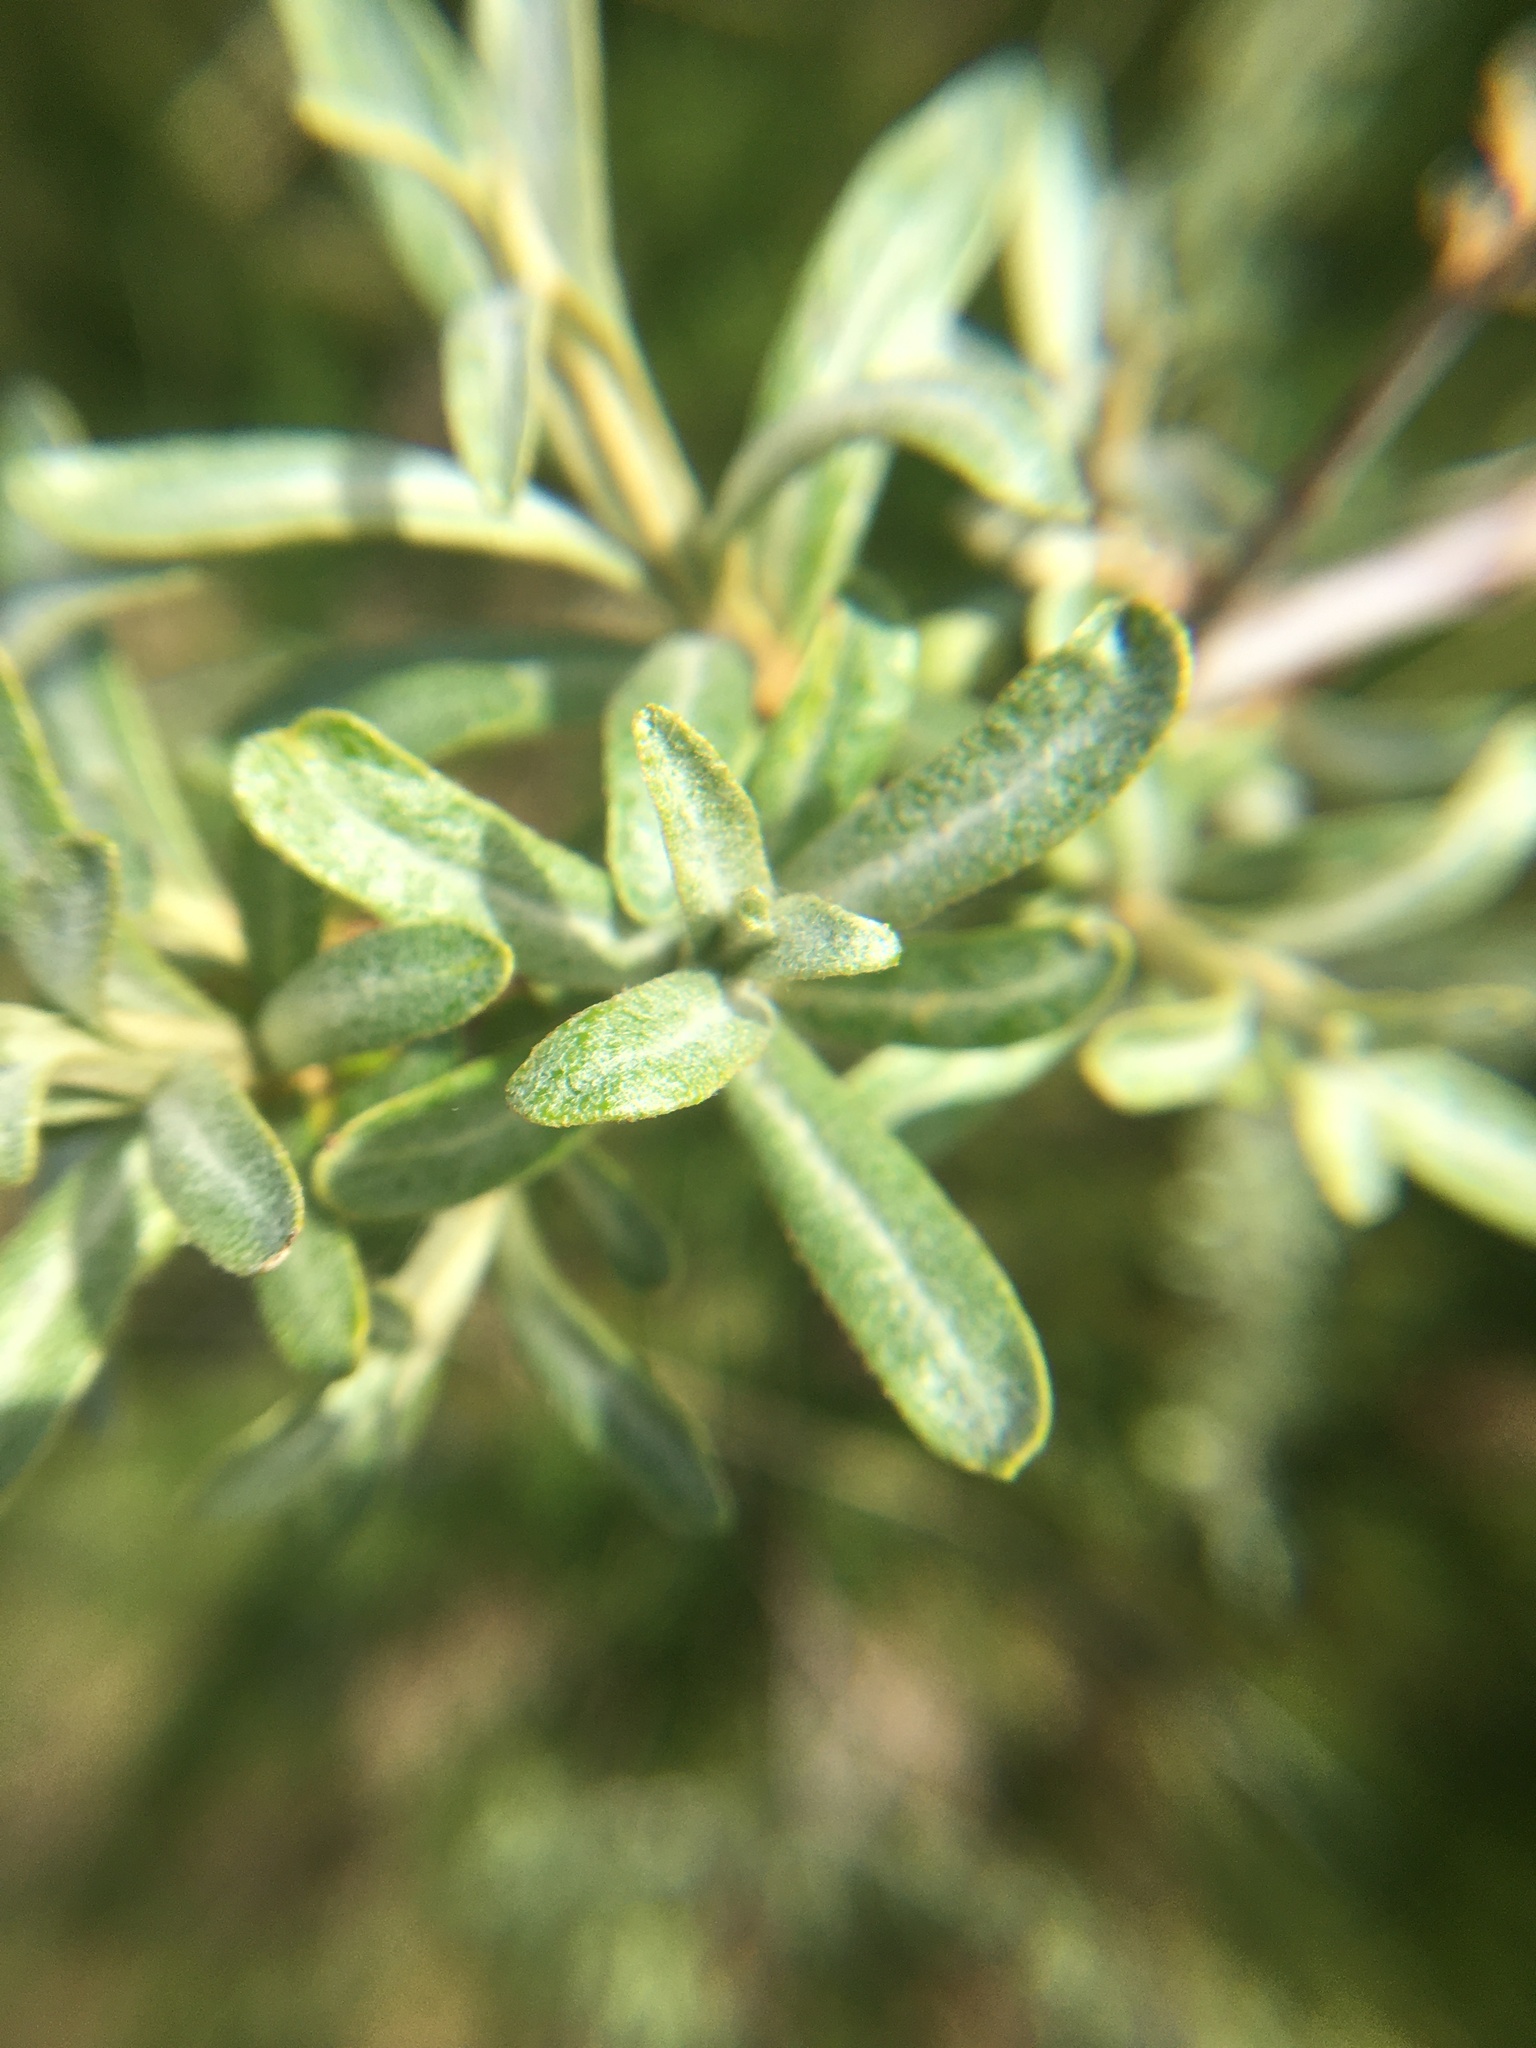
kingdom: Plantae
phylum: Tracheophyta
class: Magnoliopsida
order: Rosales
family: Elaeagnaceae
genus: Hippophae
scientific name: Hippophae rhamnoides
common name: Sea-buckthorn
